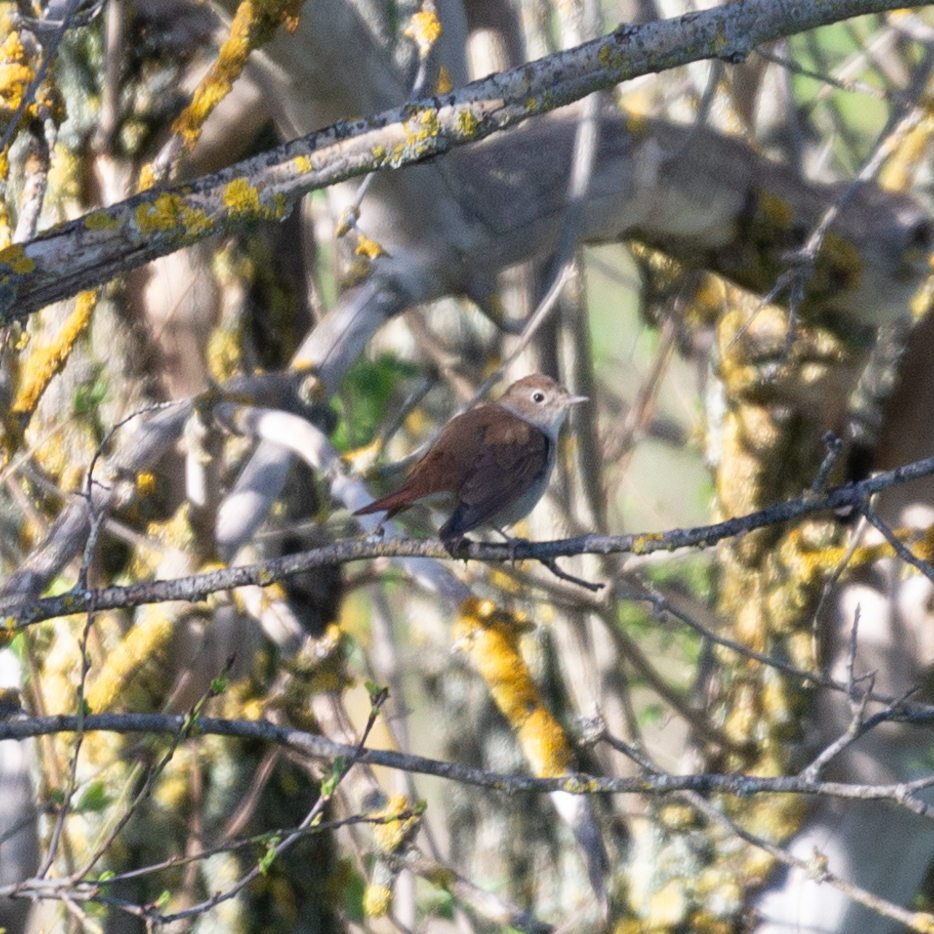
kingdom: Animalia
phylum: Chordata
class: Aves
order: Passeriformes
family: Muscicapidae
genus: Luscinia
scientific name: Luscinia megarhynchos
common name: Common nightingale
